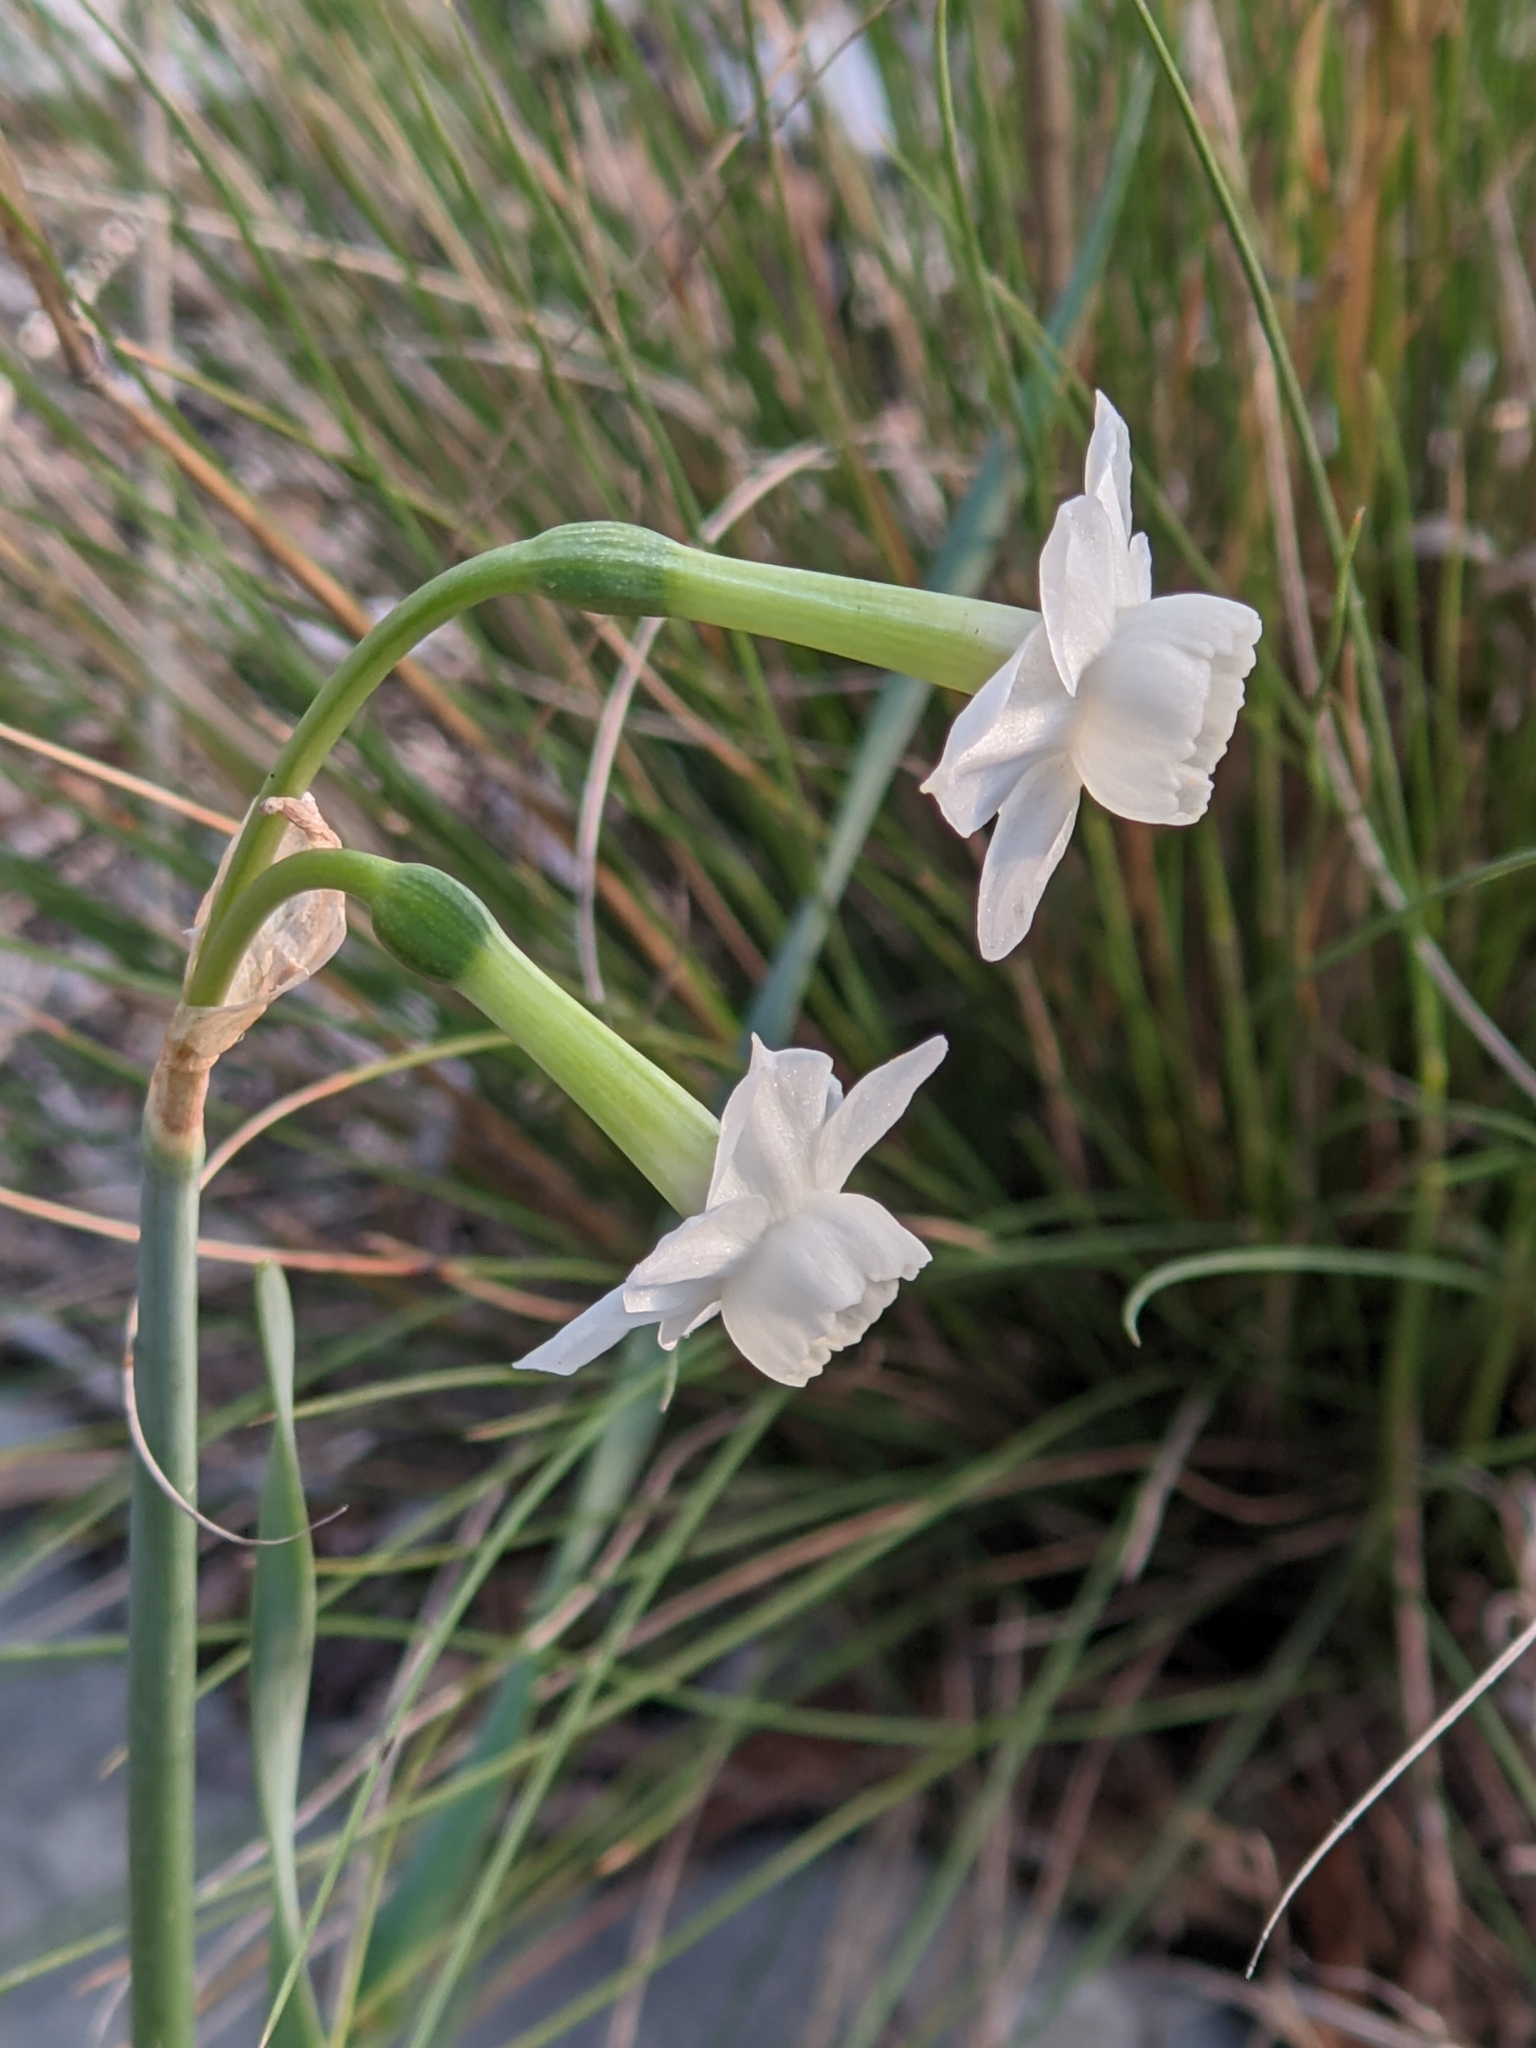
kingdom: Plantae
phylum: Tracheophyta
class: Liliopsida
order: Asparagales
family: Amaryllidaceae
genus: Narcissus
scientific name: Narcissus dubius
